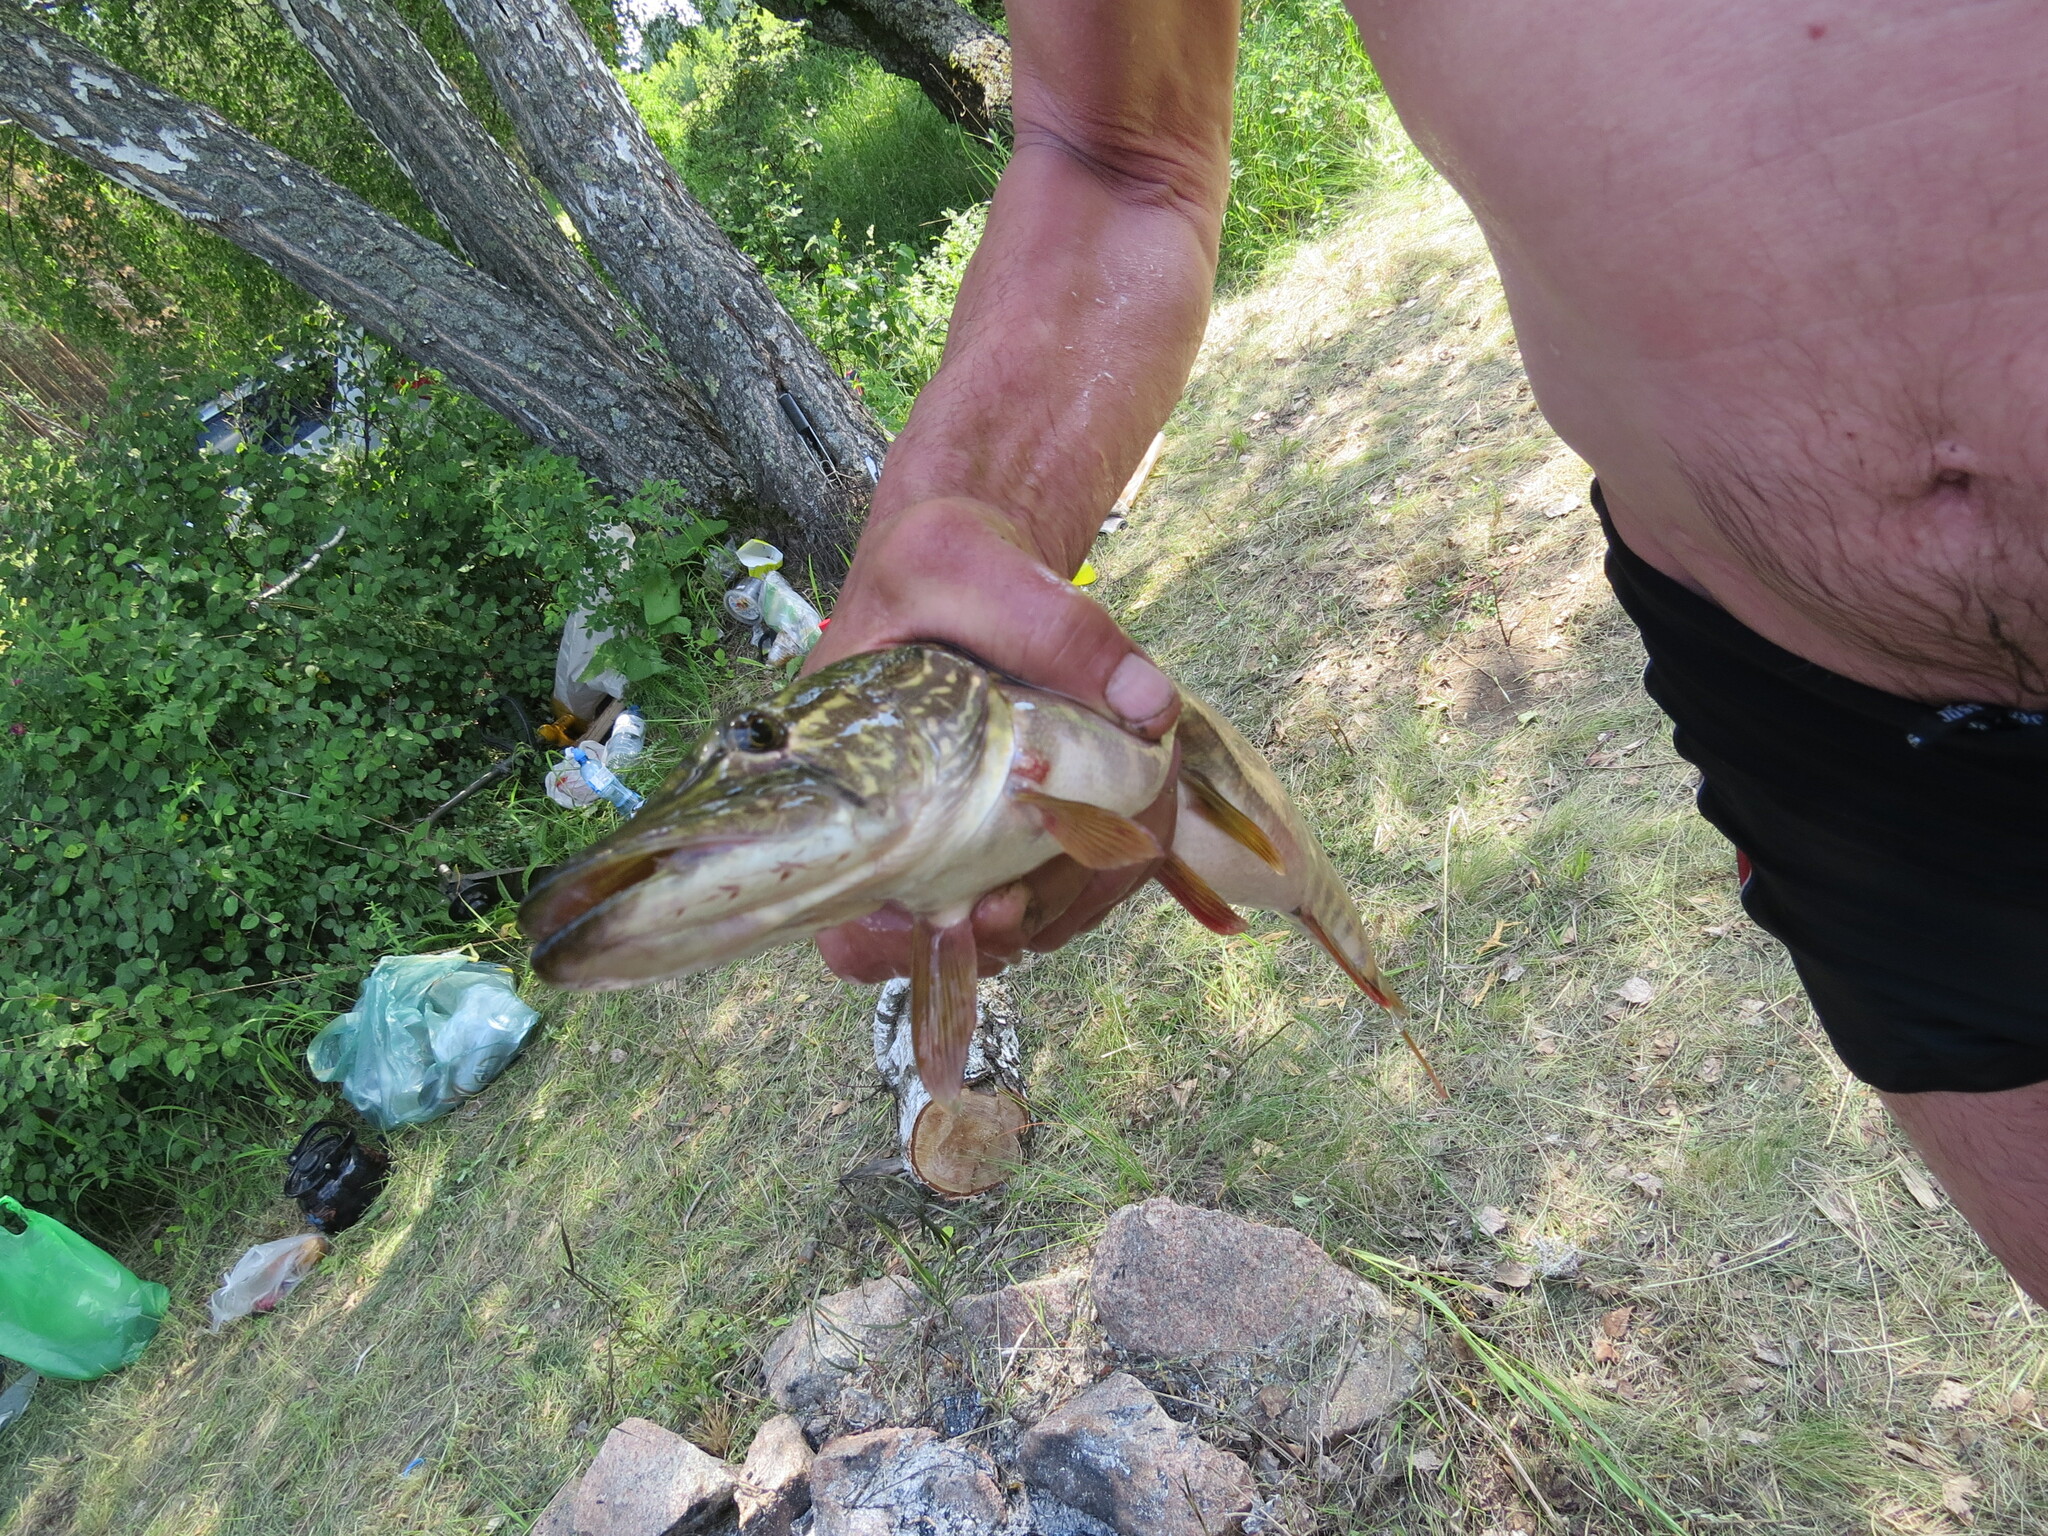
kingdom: Animalia
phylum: Chordata
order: Esociformes
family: Esocidae
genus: Esox
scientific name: Esox lucius
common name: Northern pike
